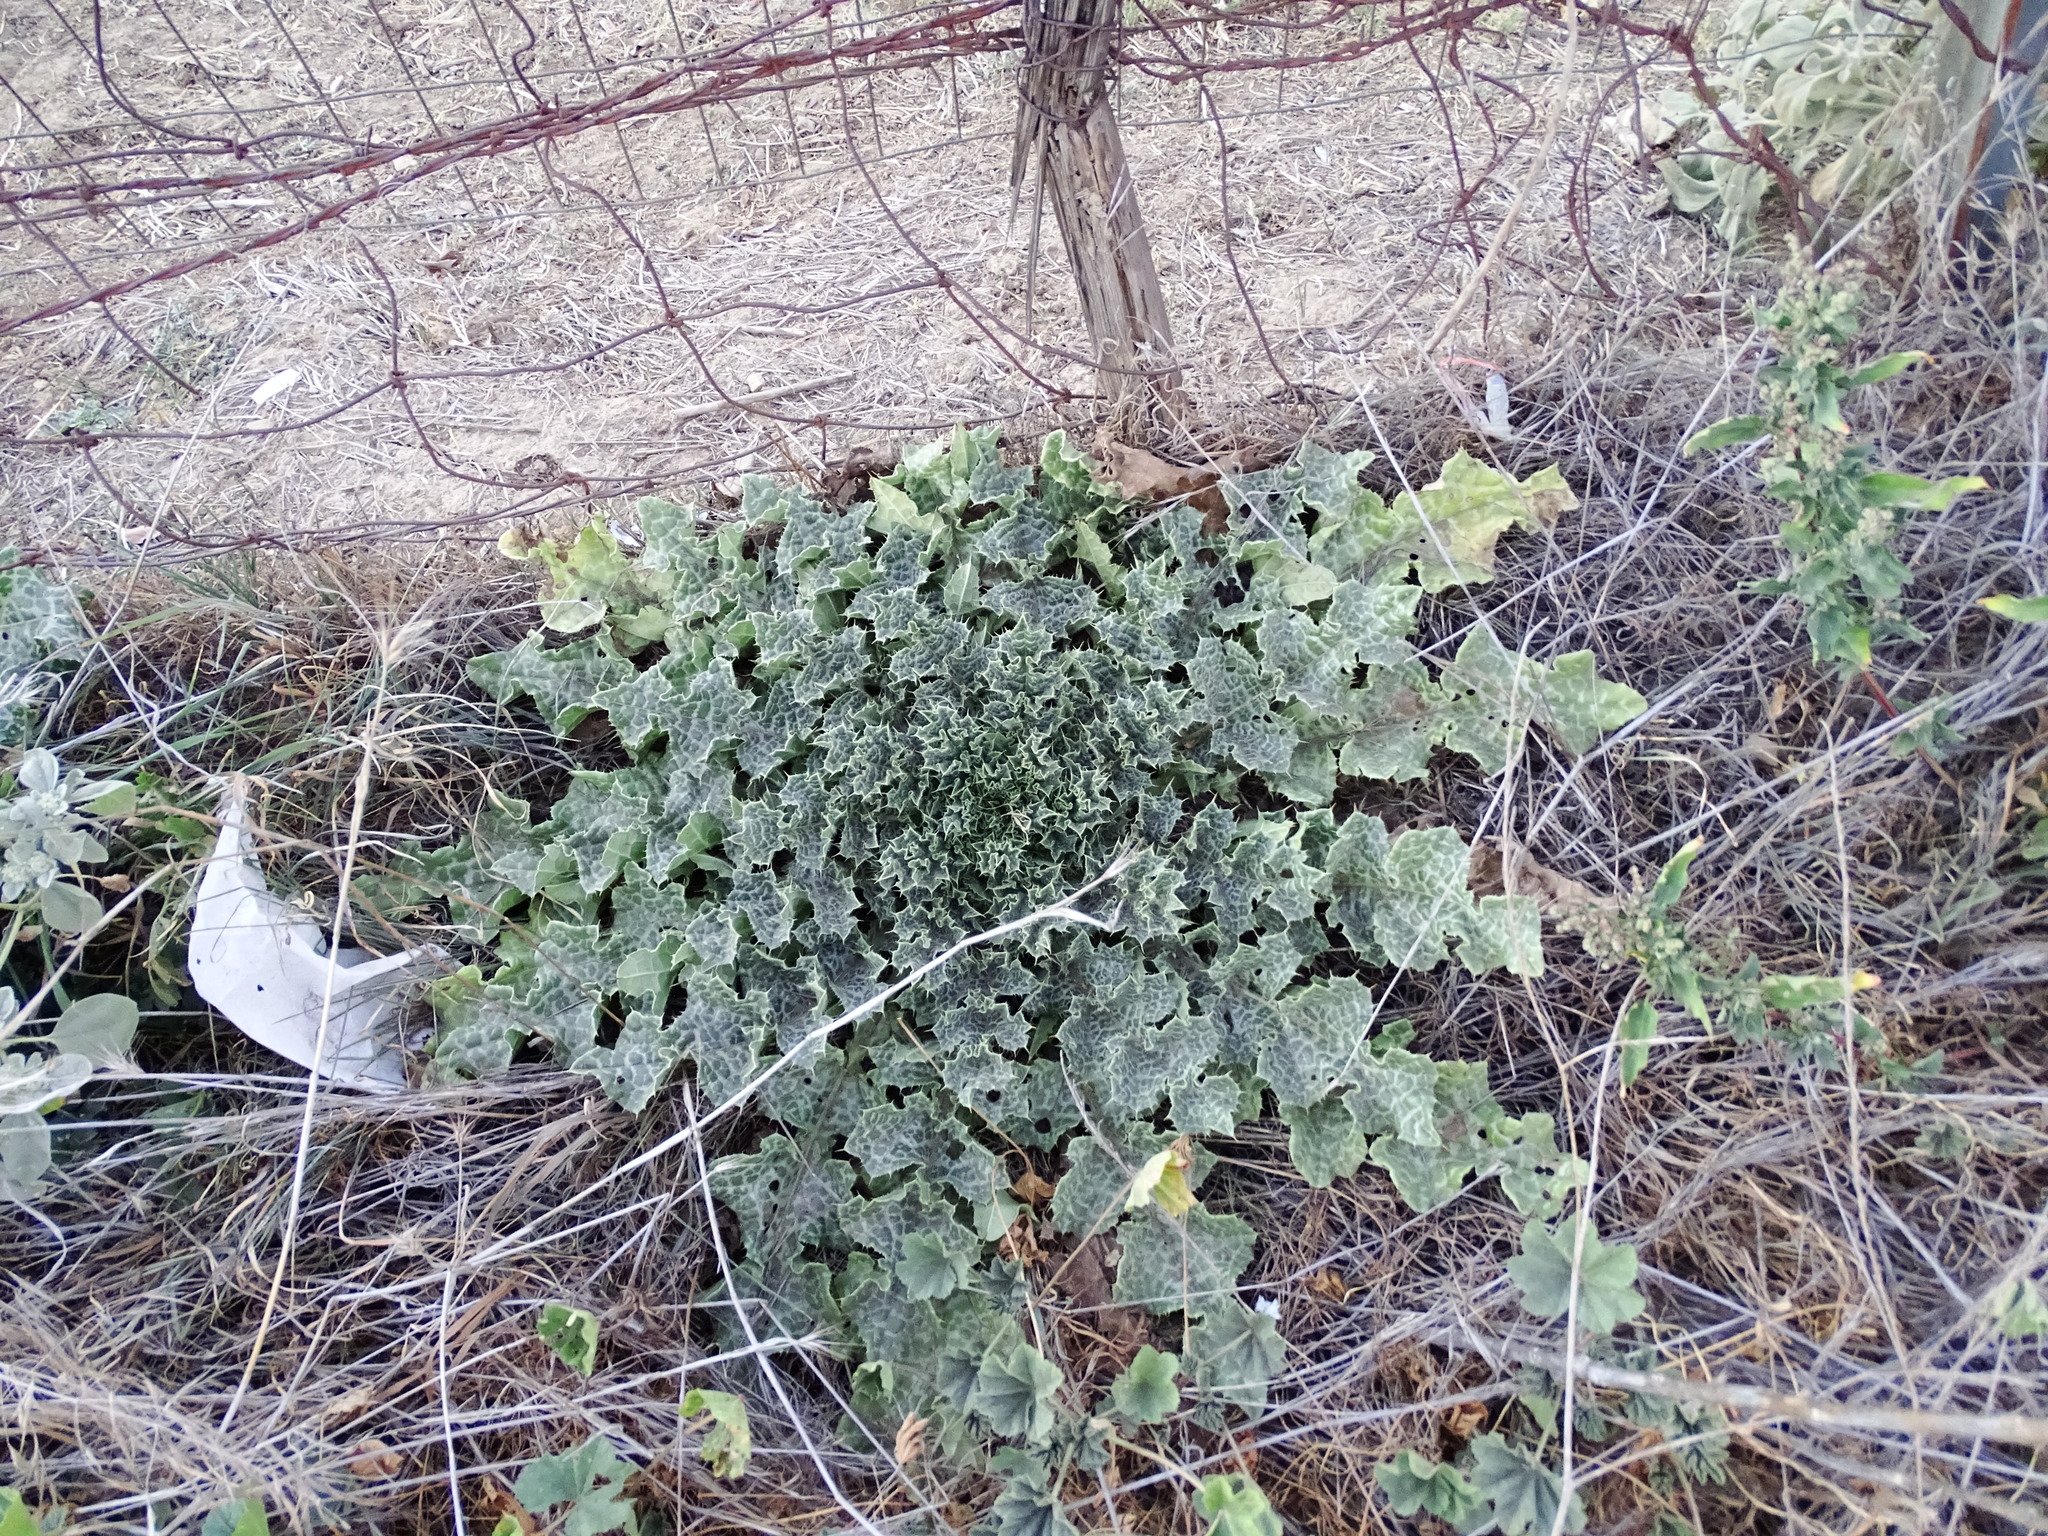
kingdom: Plantae
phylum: Tracheophyta
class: Magnoliopsida
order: Asterales
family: Asteraceae
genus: Silybum
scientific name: Silybum marianum
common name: Milk thistle
